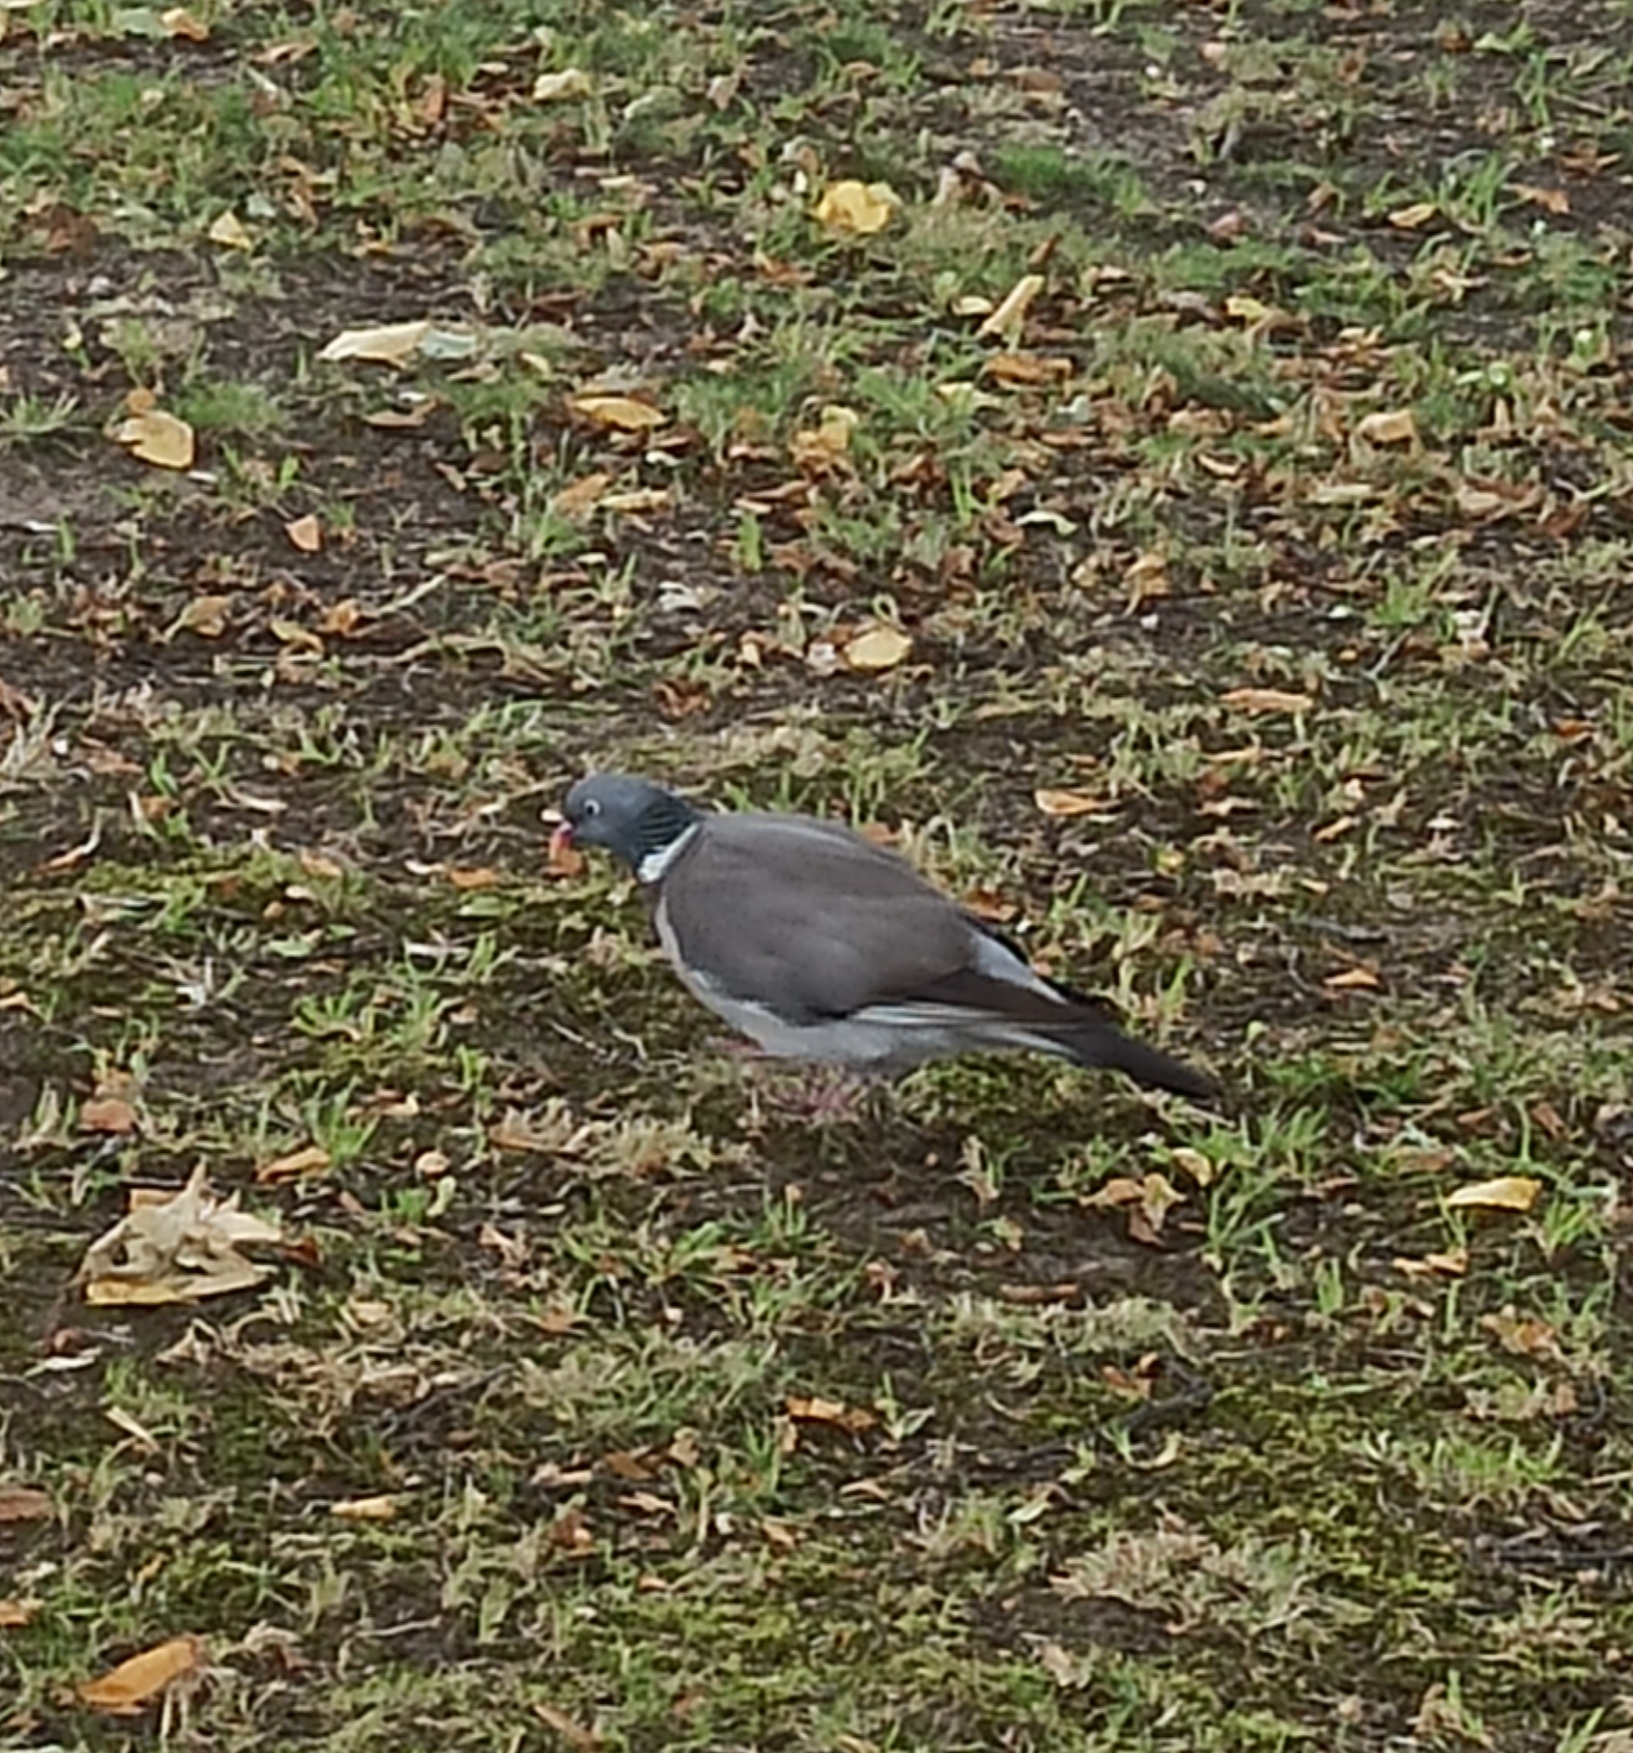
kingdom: Animalia
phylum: Chordata
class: Aves
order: Columbiformes
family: Columbidae
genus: Columba
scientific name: Columba palumbus
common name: Common wood pigeon
